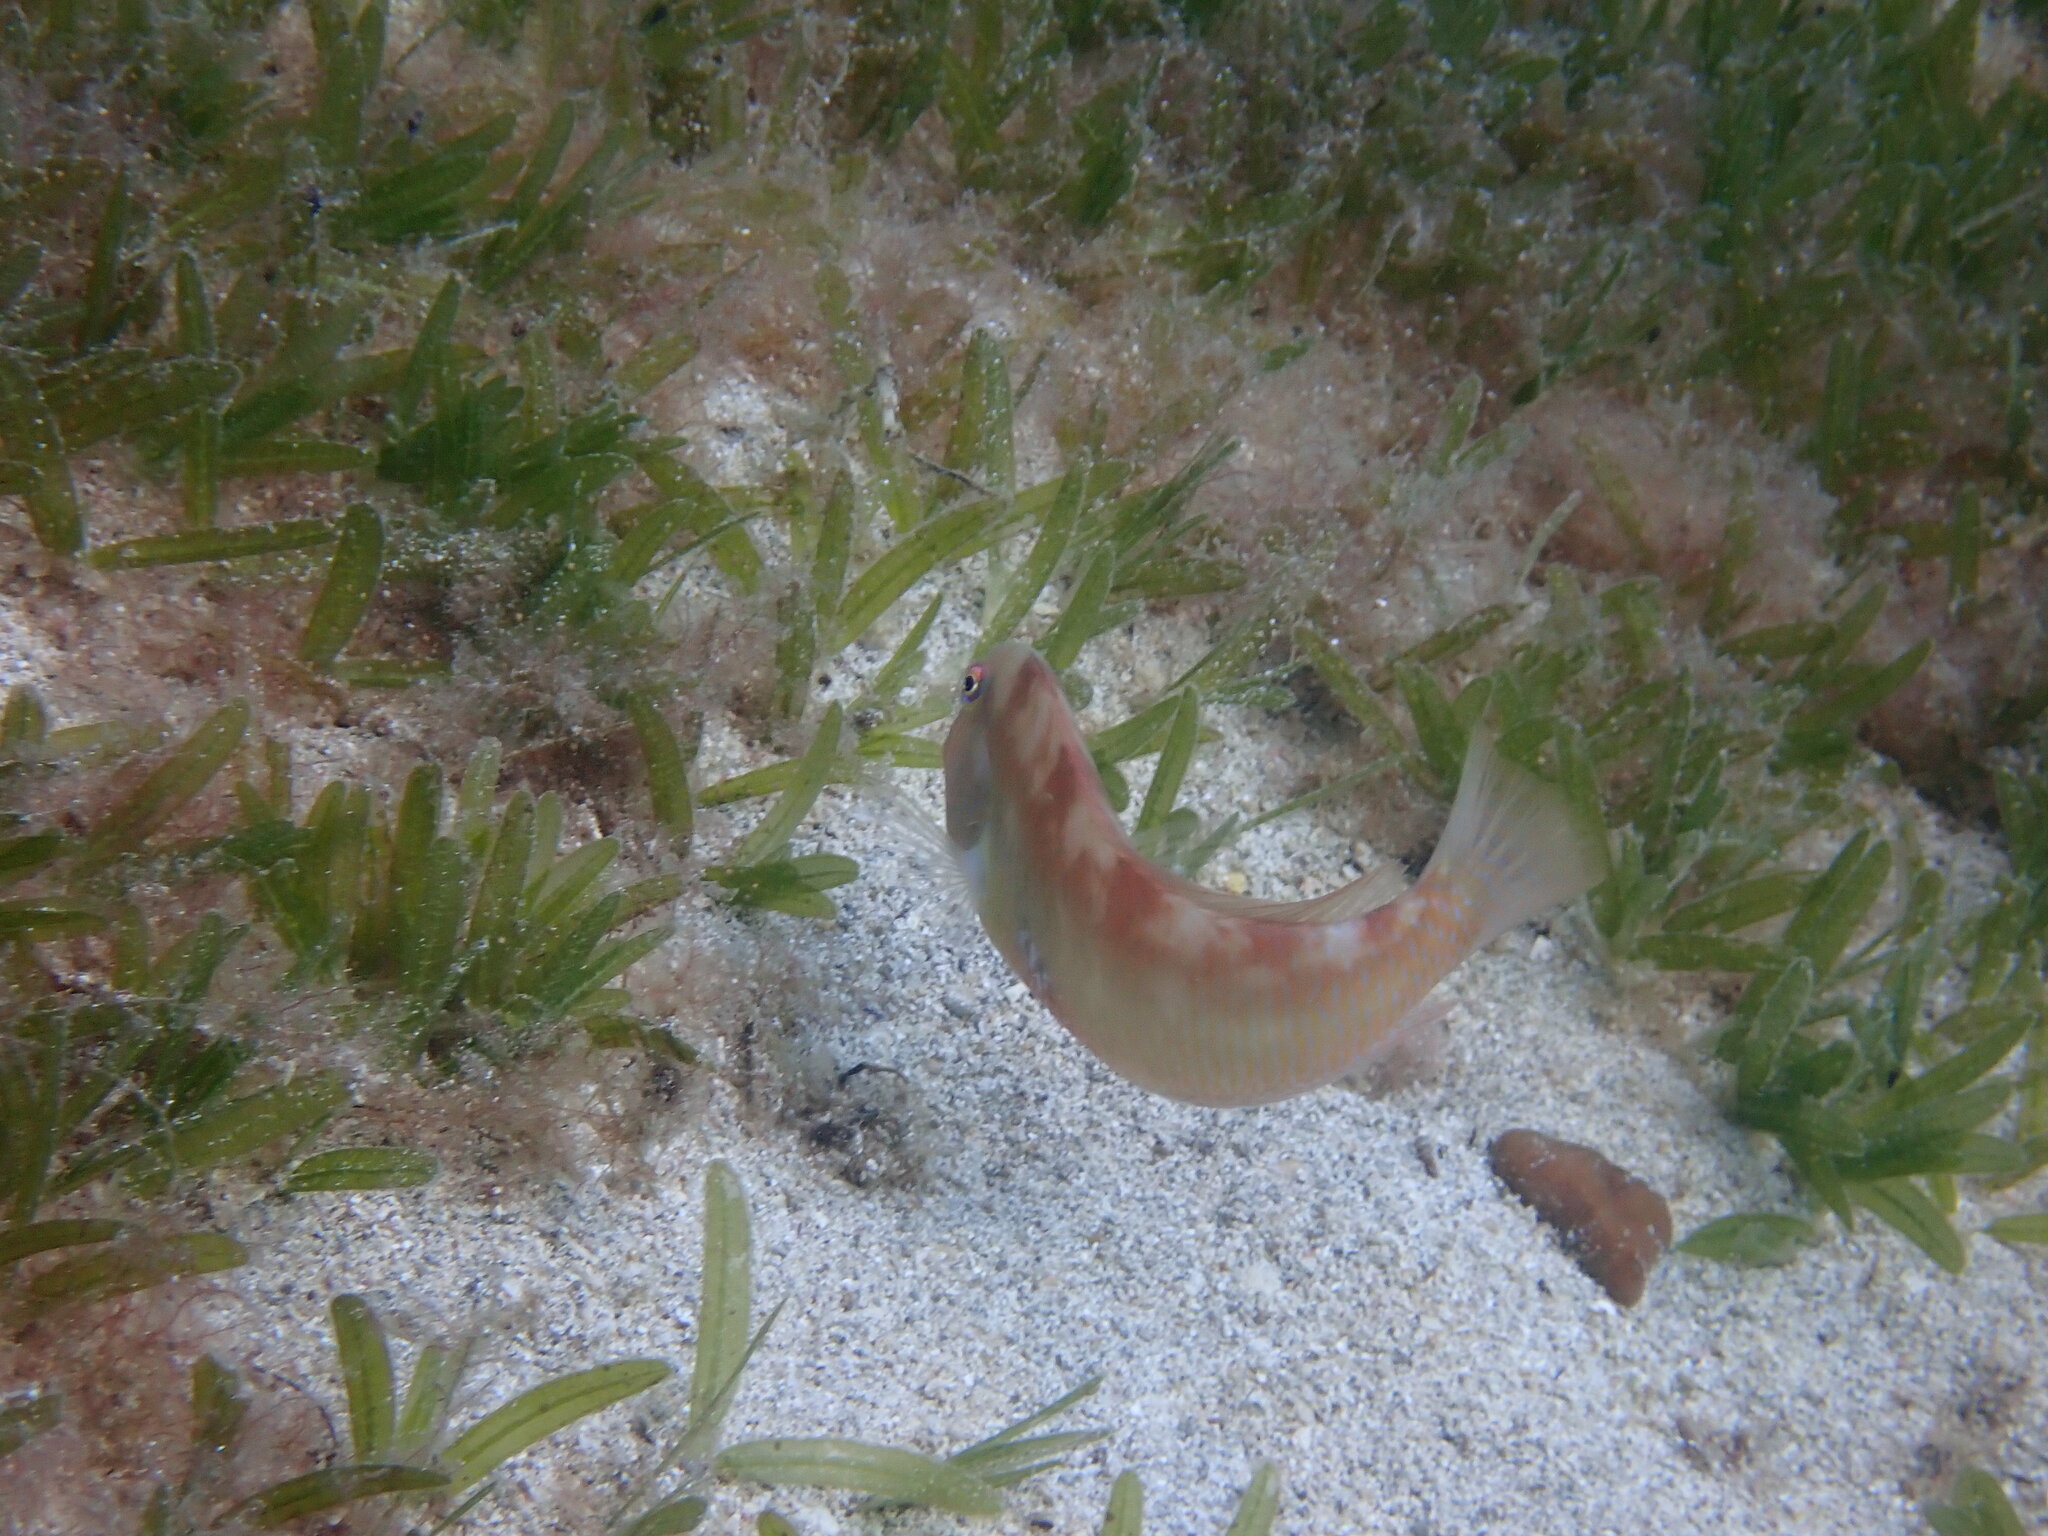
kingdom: Animalia
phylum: Chordata
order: Perciformes
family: Labridae
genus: Xyrichtys
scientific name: Xyrichtys novacula
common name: Pearly razorfish
